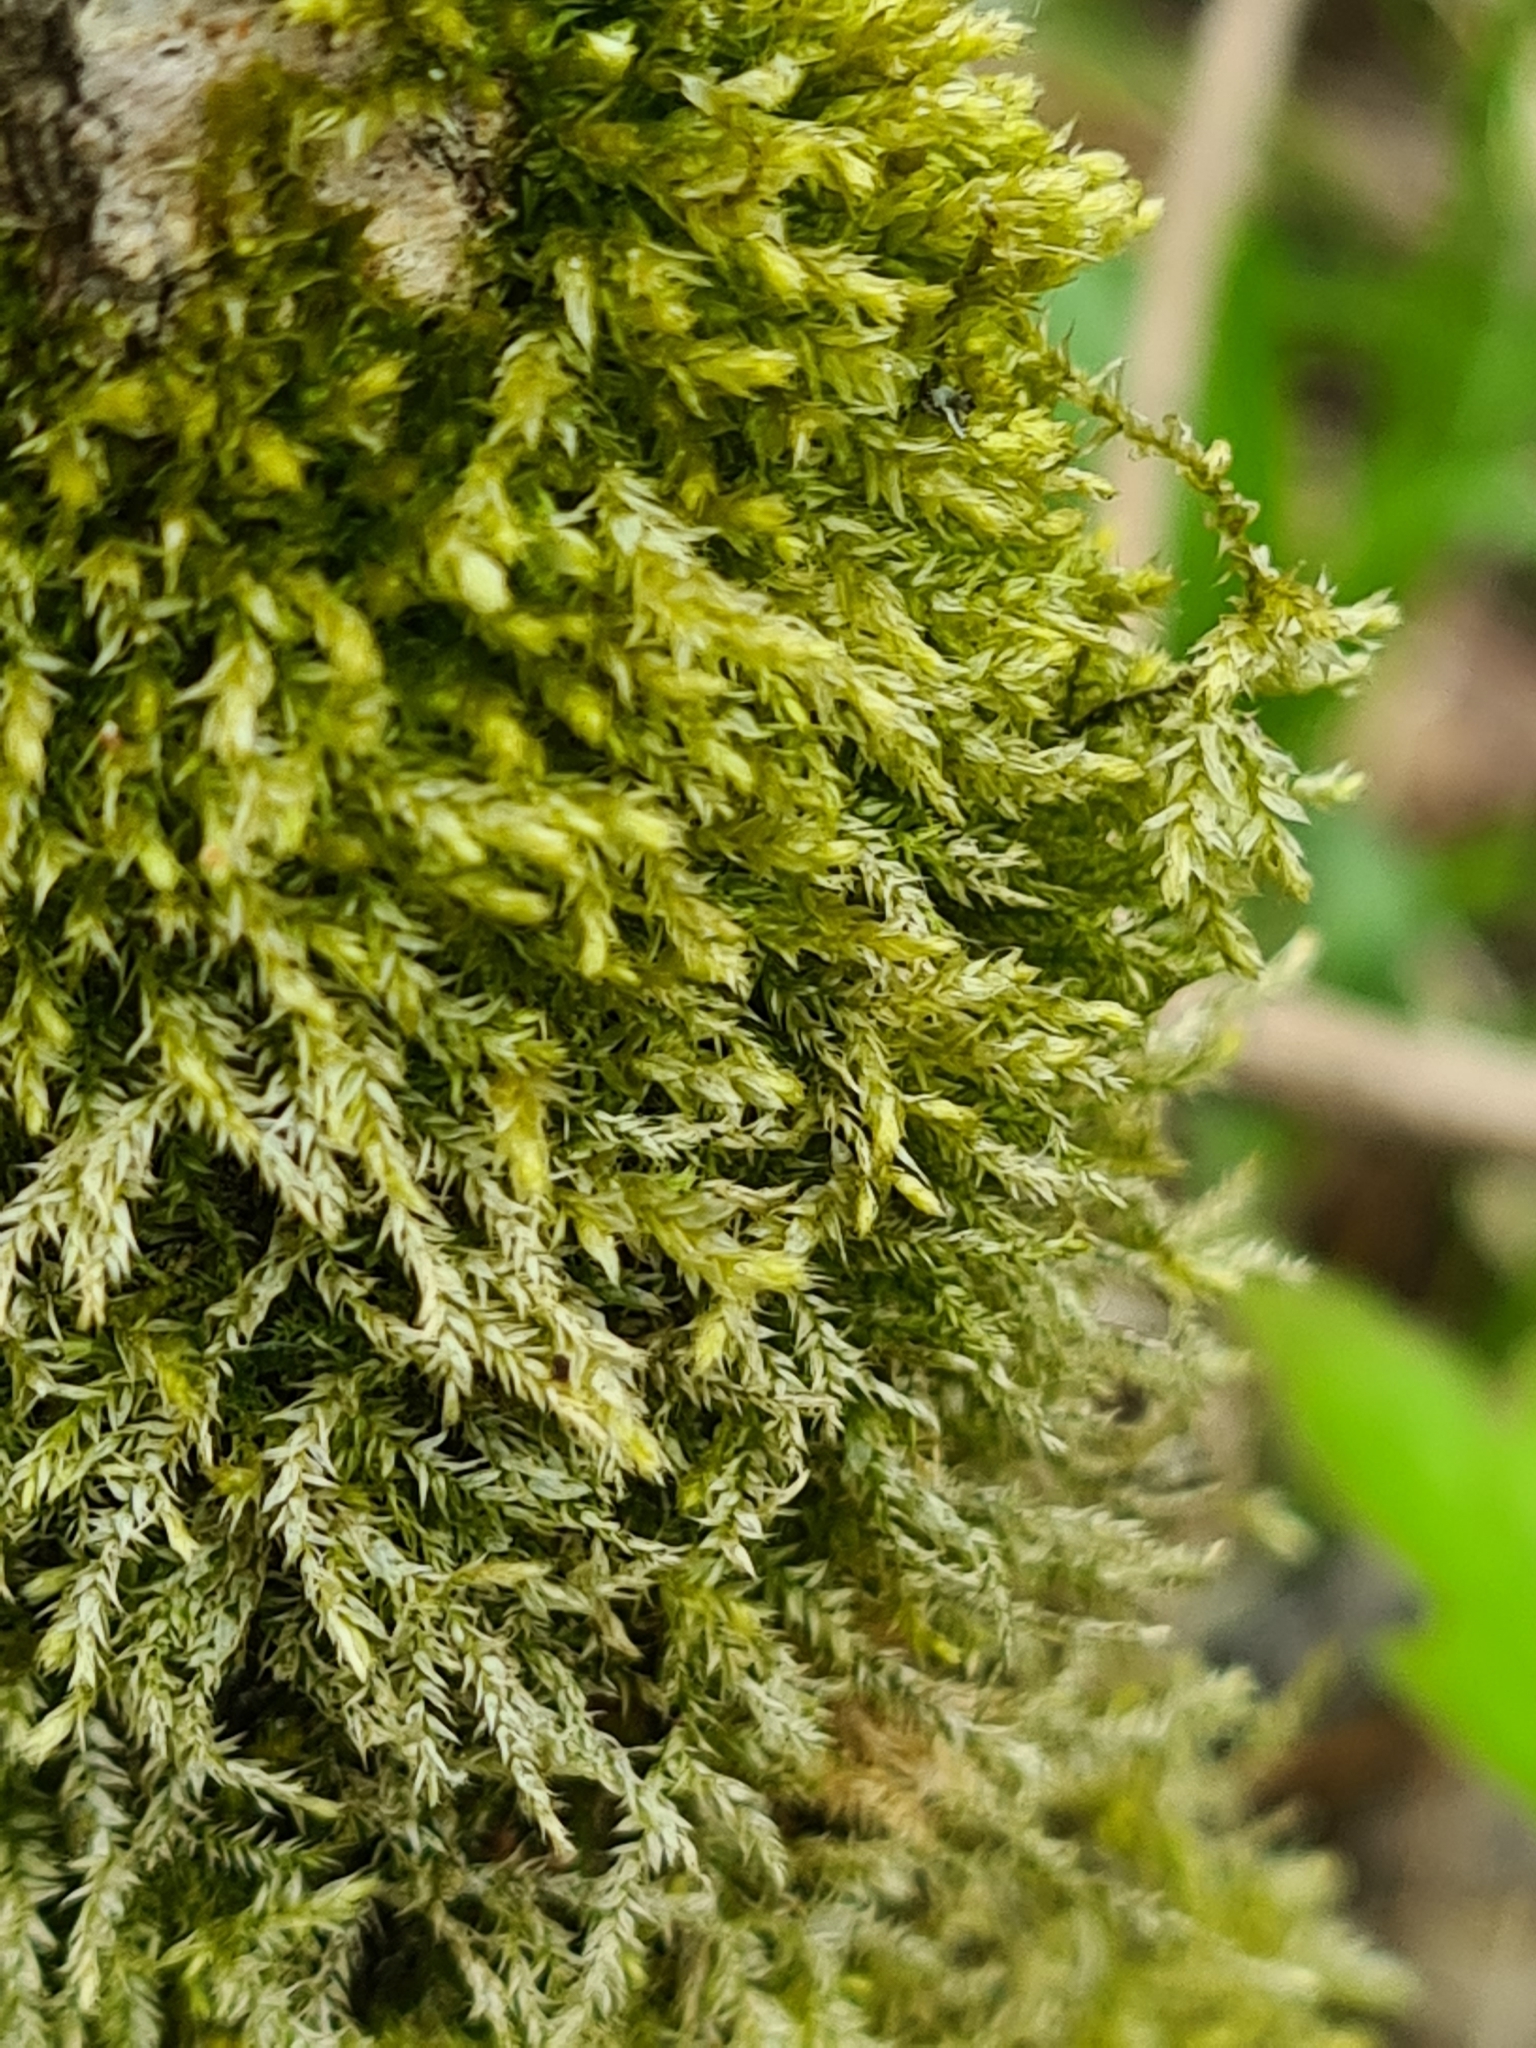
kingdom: Plantae
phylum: Bryophyta
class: Bryopsida
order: Hypnales
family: Brachytheciaceae
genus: Brachythecium
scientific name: Brachythecium rutabulum
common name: Rough-stalked feather-moss
